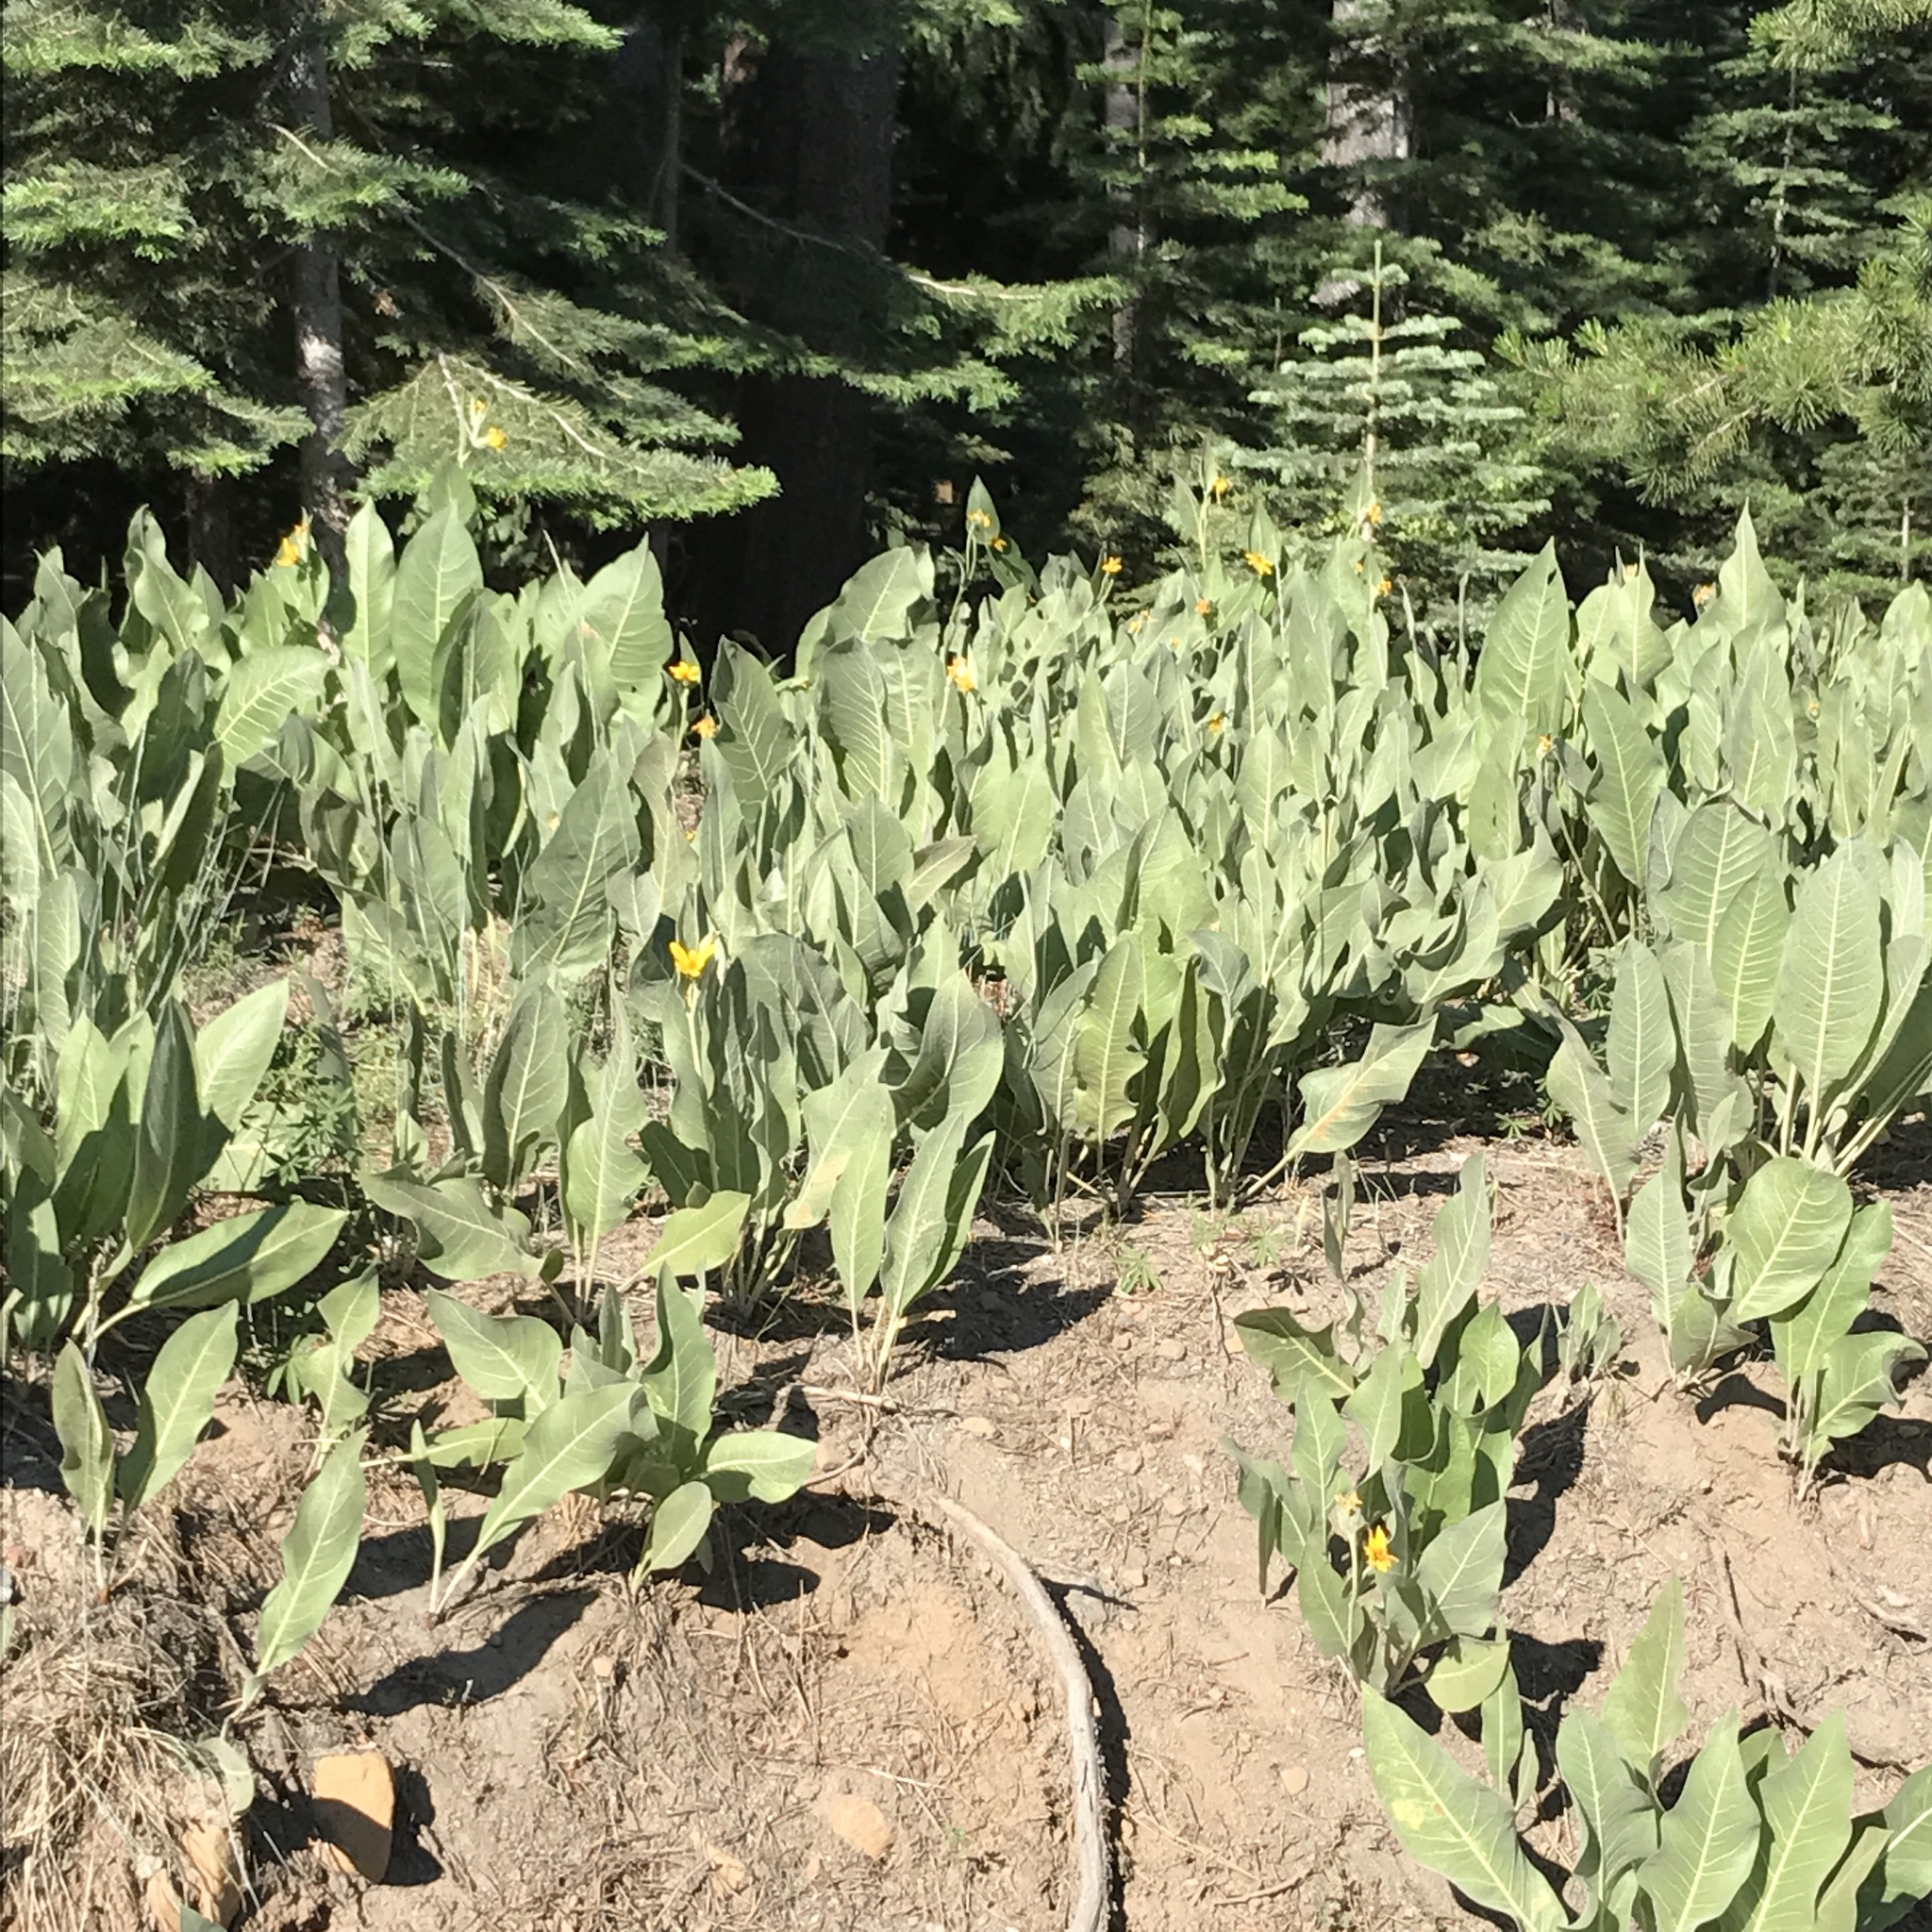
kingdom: Plantae
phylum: Tracheophyta
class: Magnoliopsida
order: Asterales
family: Asteraceae
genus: Wyethia
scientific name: Wyethia mollis
